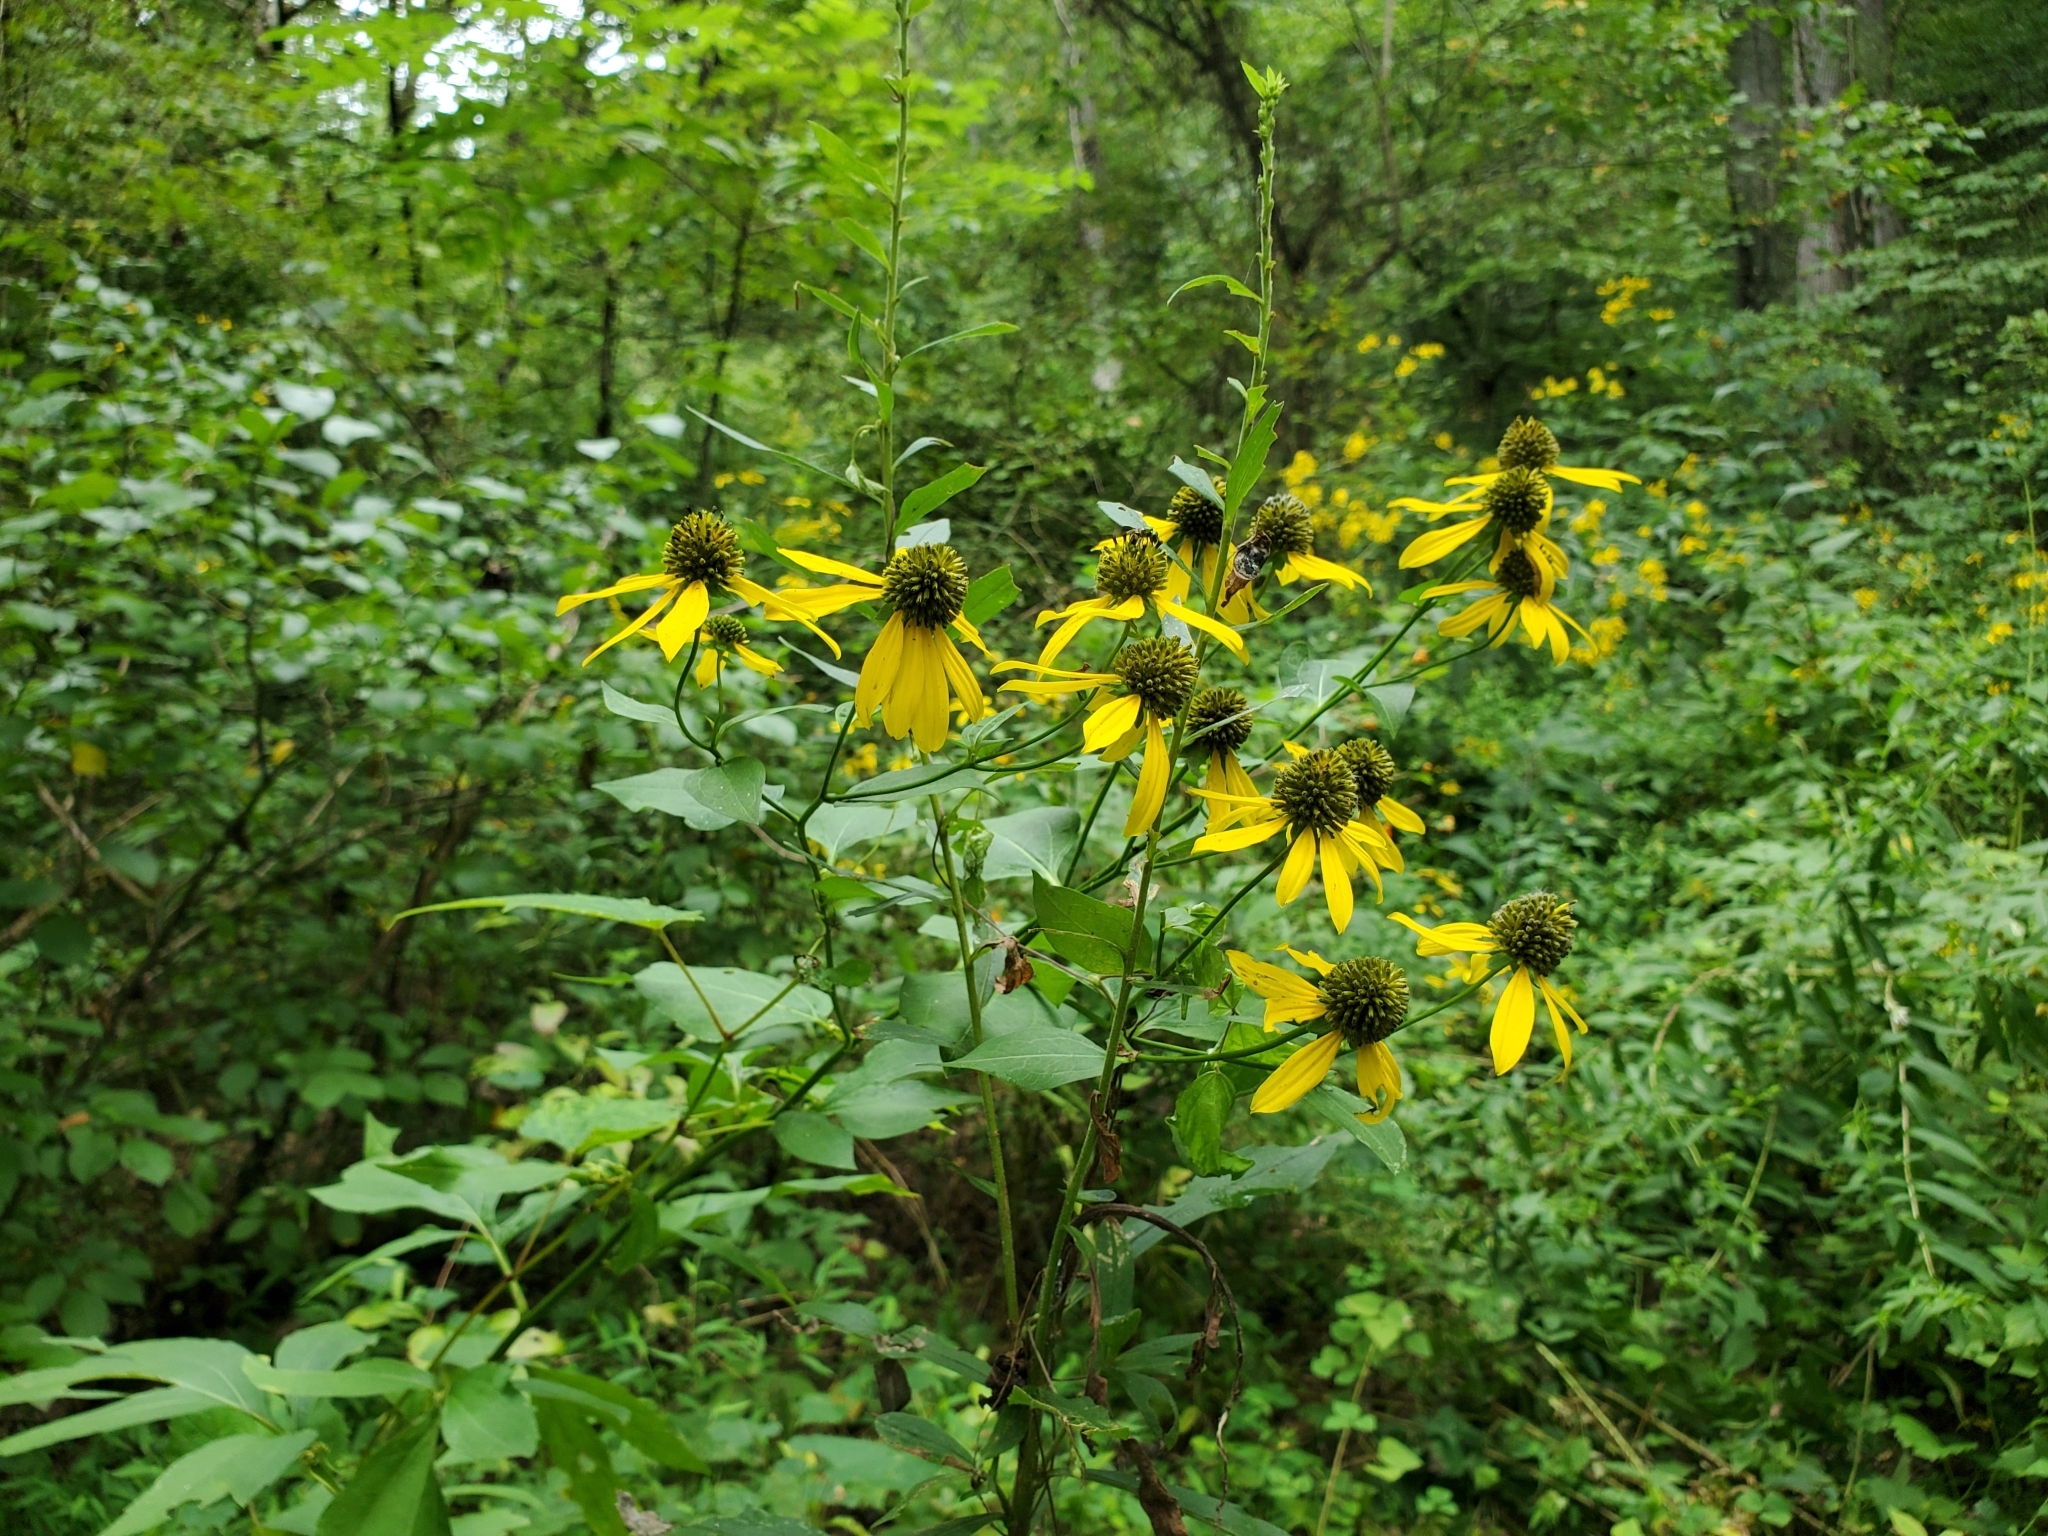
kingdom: Plantae
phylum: Tracheophyta
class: Magnoliopsida
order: Asterales
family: Asteraceae
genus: Rudbeckia
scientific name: Rudbeckia laciniata
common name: Coneflower
